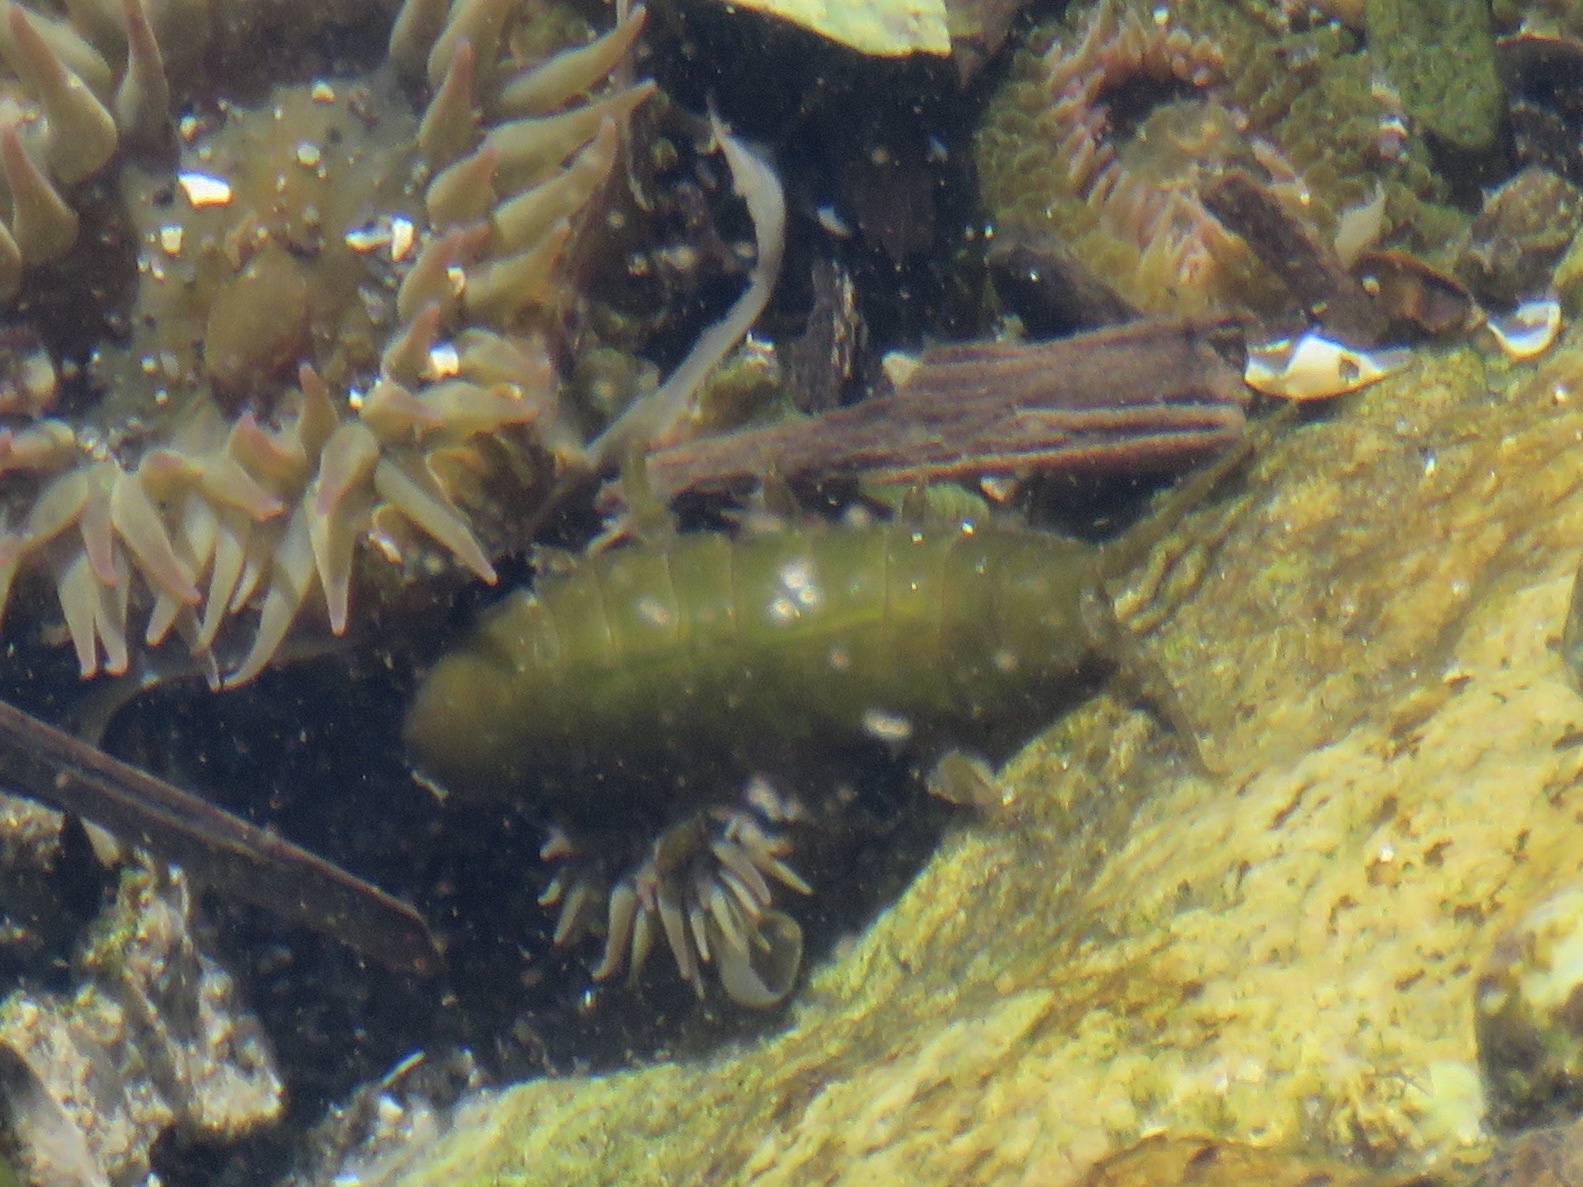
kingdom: Animalia
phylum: Arthropoda
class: Malacostraca
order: Isopoda
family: Idoteidae
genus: Pentidotea
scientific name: Pentidotea wosnesenskii
